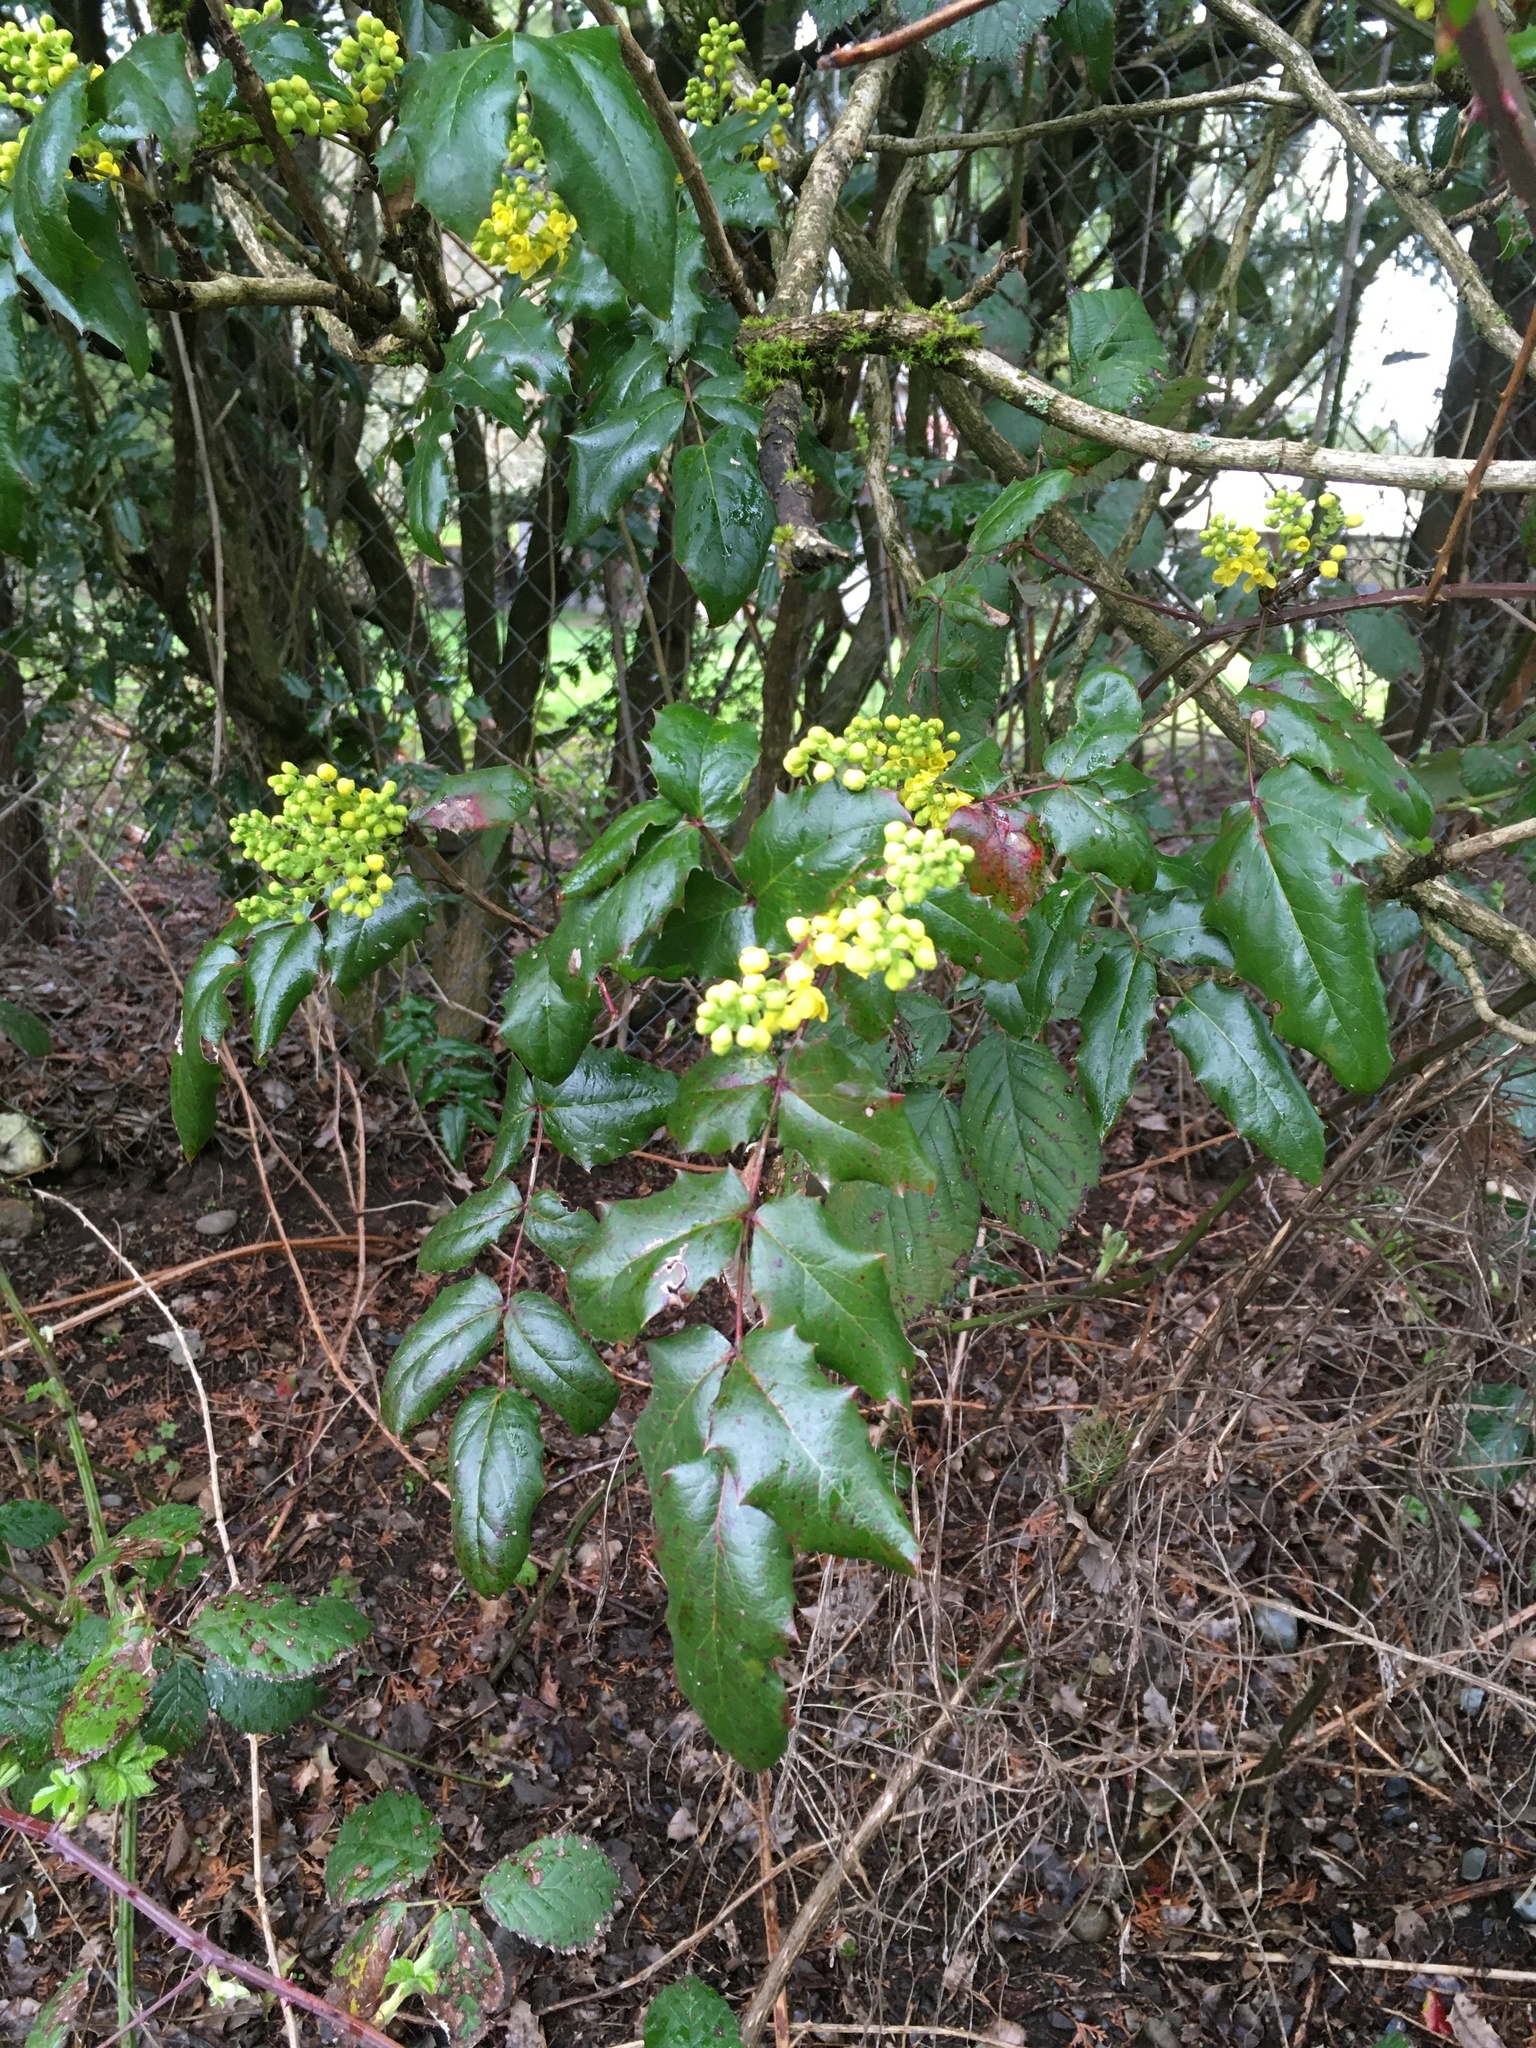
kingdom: Plantae
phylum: Tracheophyta
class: Magnoliopsida
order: Ranunculales
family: Berberidaceae
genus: Mahonia
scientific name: Mahonia aquifolium
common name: Oregon-grape
